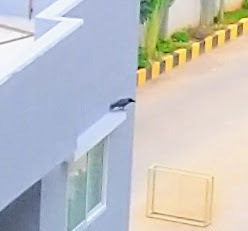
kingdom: Animalia
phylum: Chordata
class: Aves
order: Passeriformes
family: Corvidae
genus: Corvus
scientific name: Corvus splendens
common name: House crow
